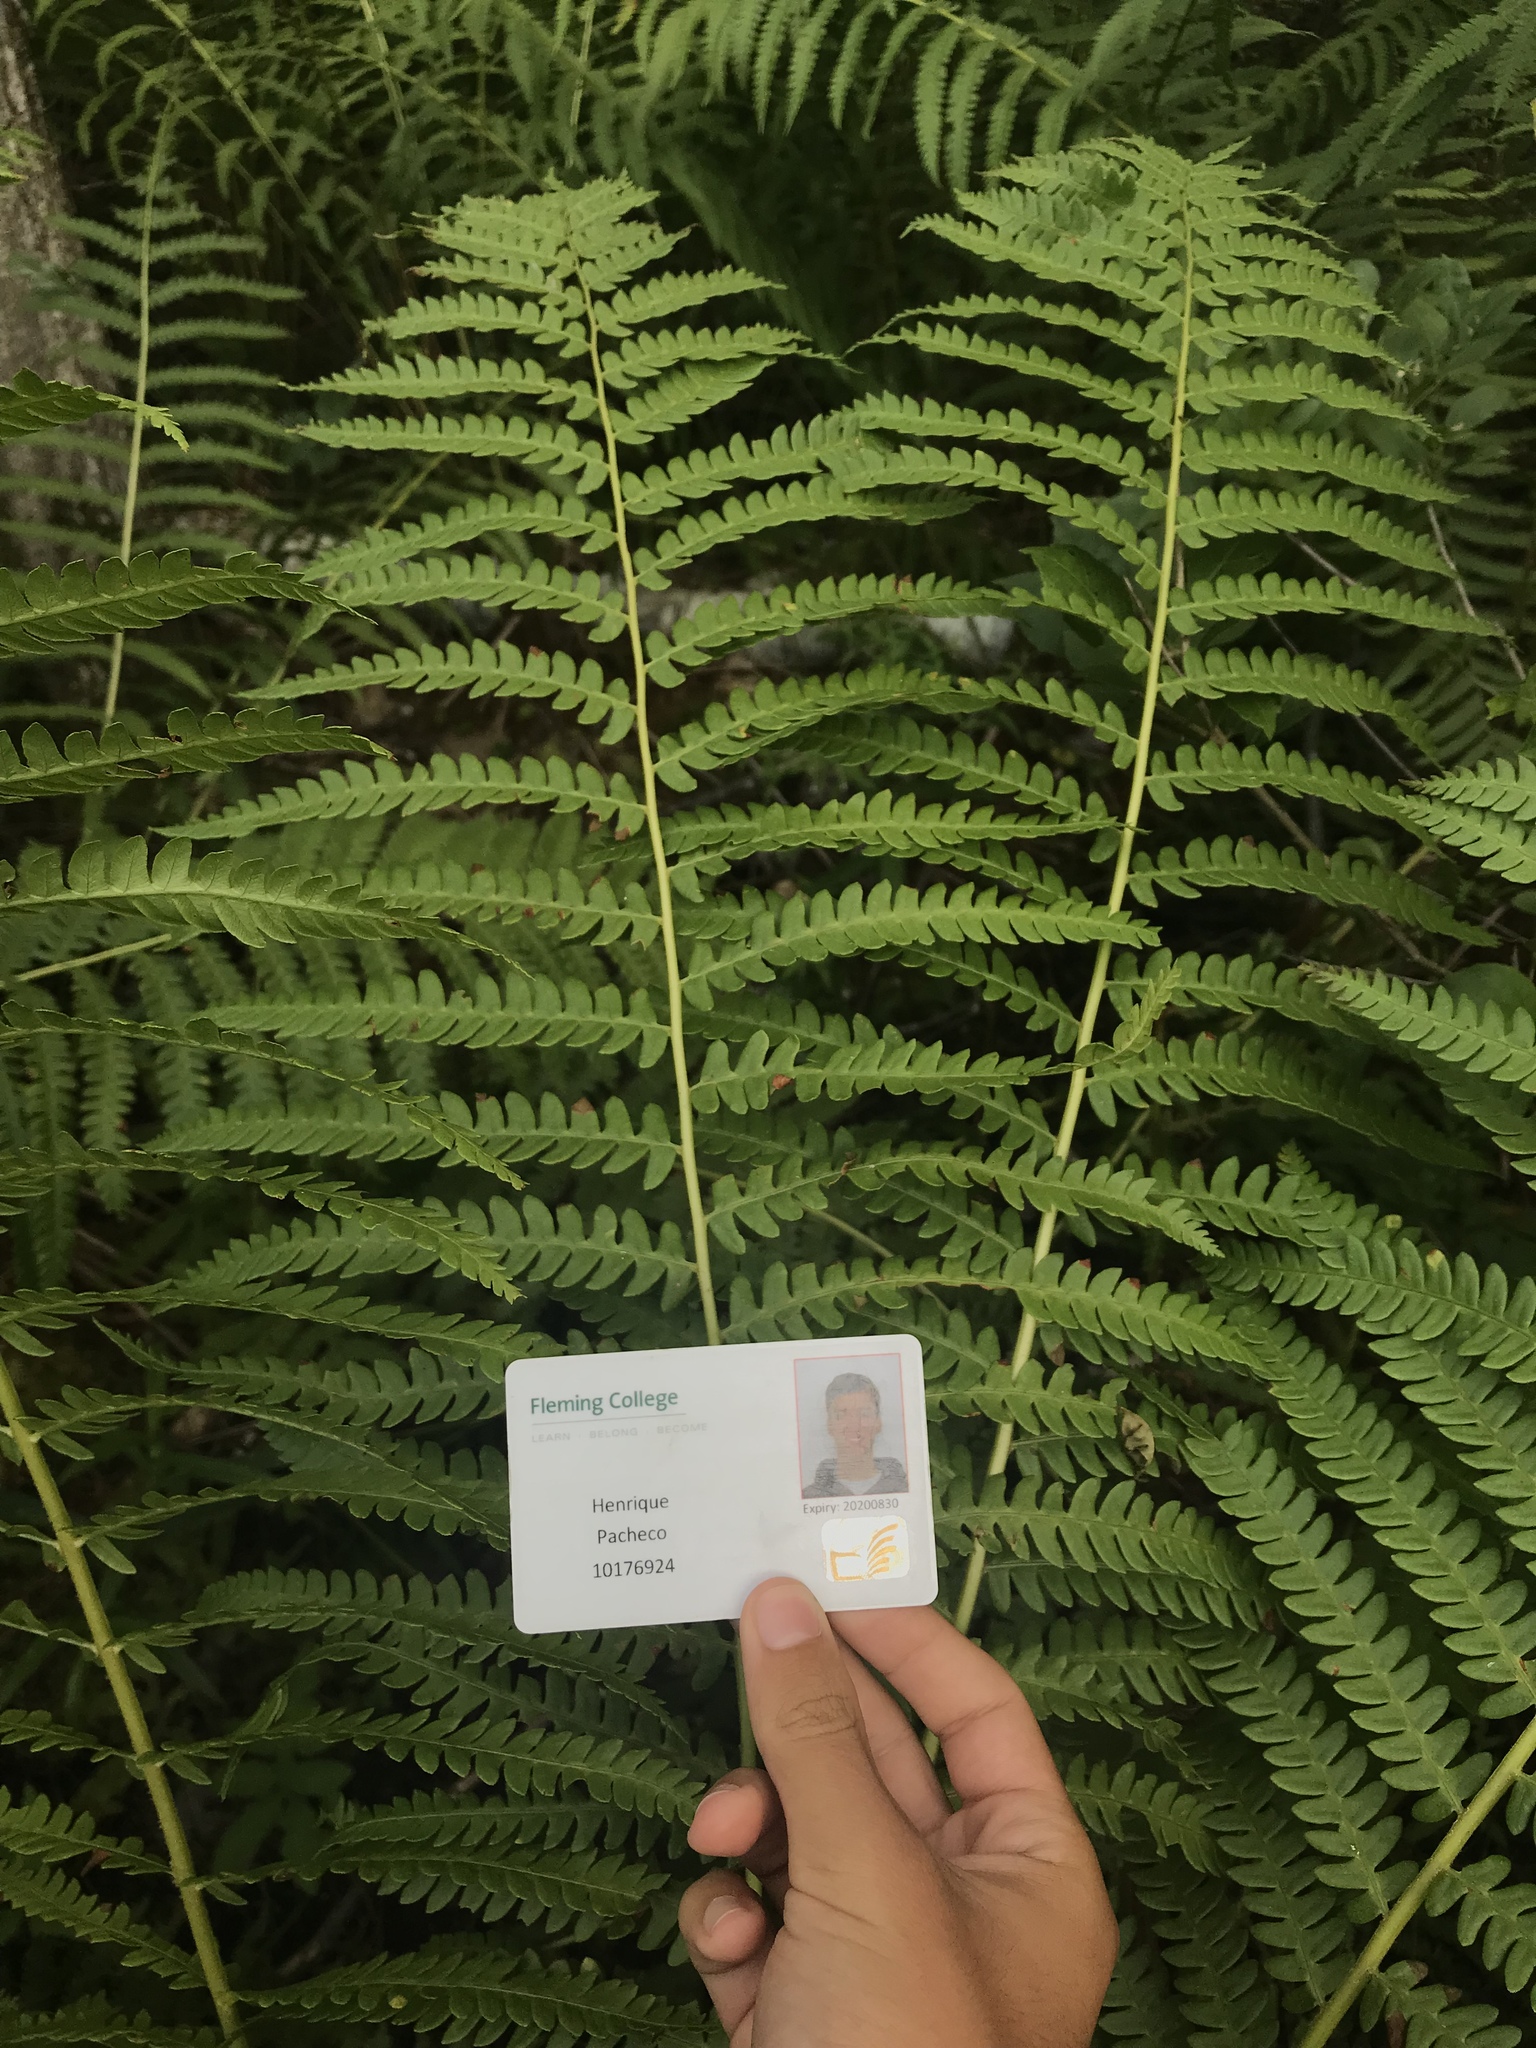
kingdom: Plantae
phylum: Tracheophyta
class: Polypodiopsida
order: Osmundales
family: Osmundaceae
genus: Osmundastrum
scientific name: Osmundastrum cinnamomeum
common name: Cinnamon fern
